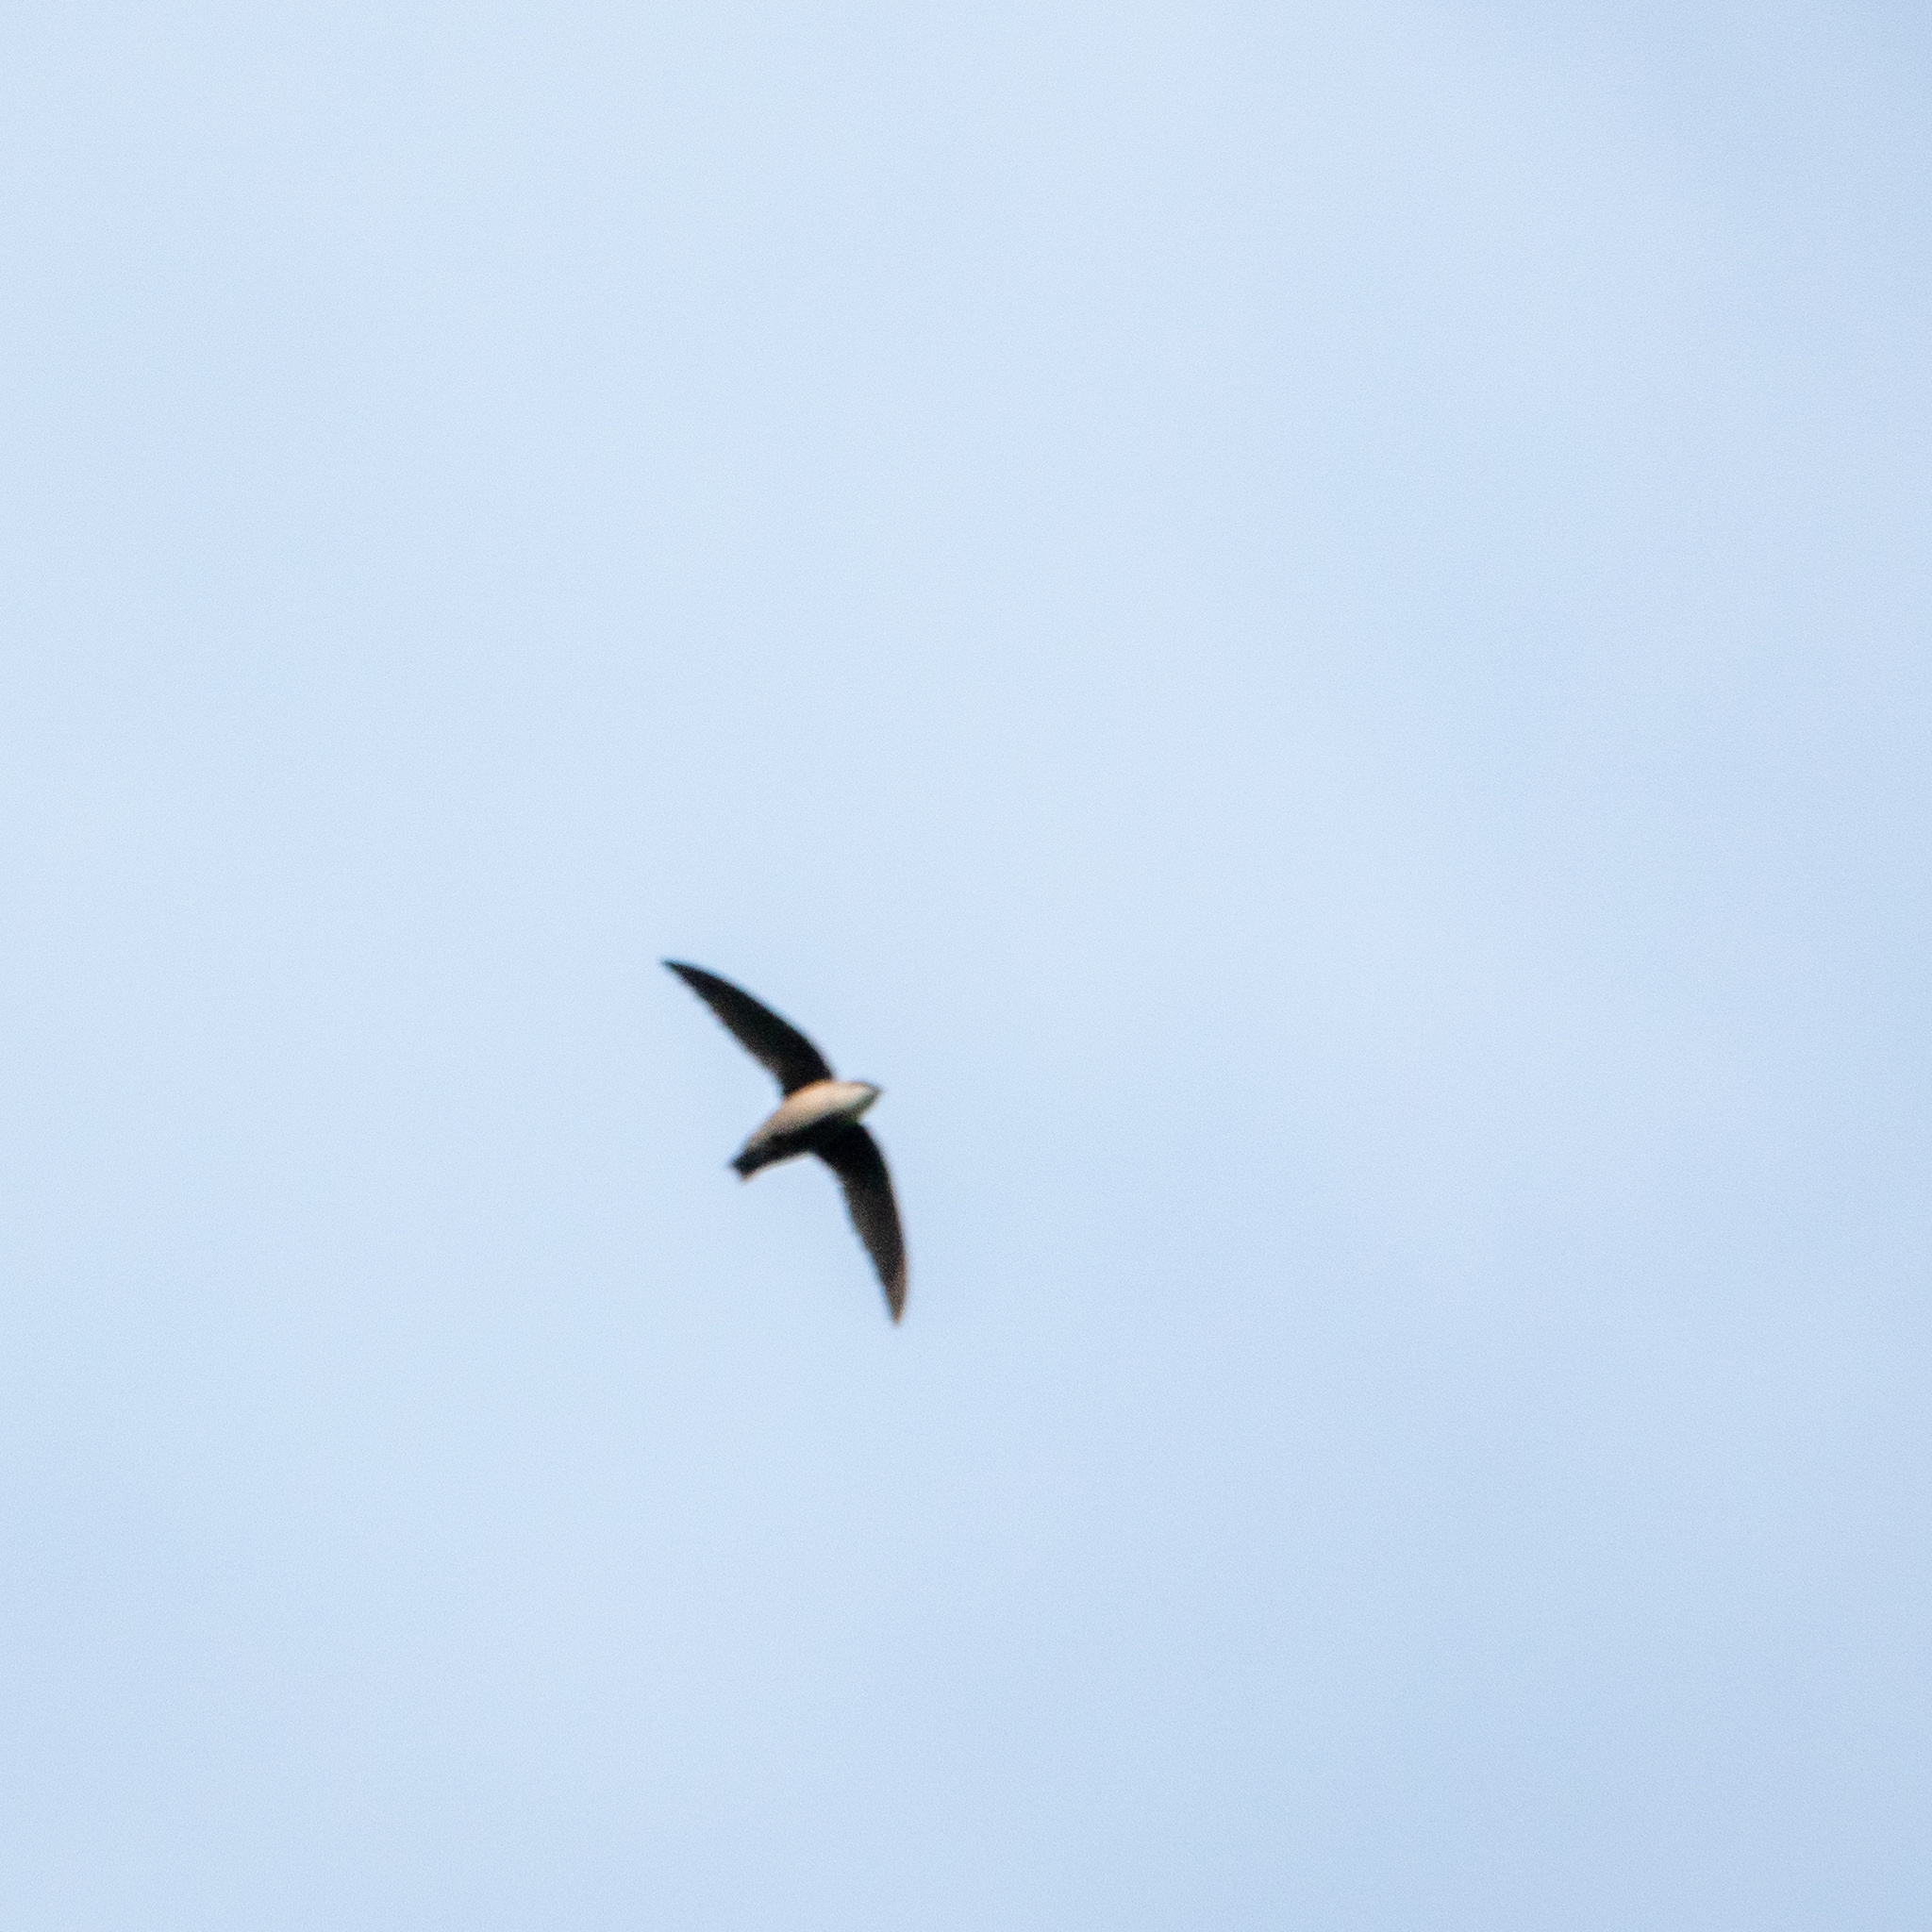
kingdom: Animalia
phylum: Chordata
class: Aves
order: Apodiformes
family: Apodidae
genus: Chaetura
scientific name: Chaetura pelagica
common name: Chimney swift
